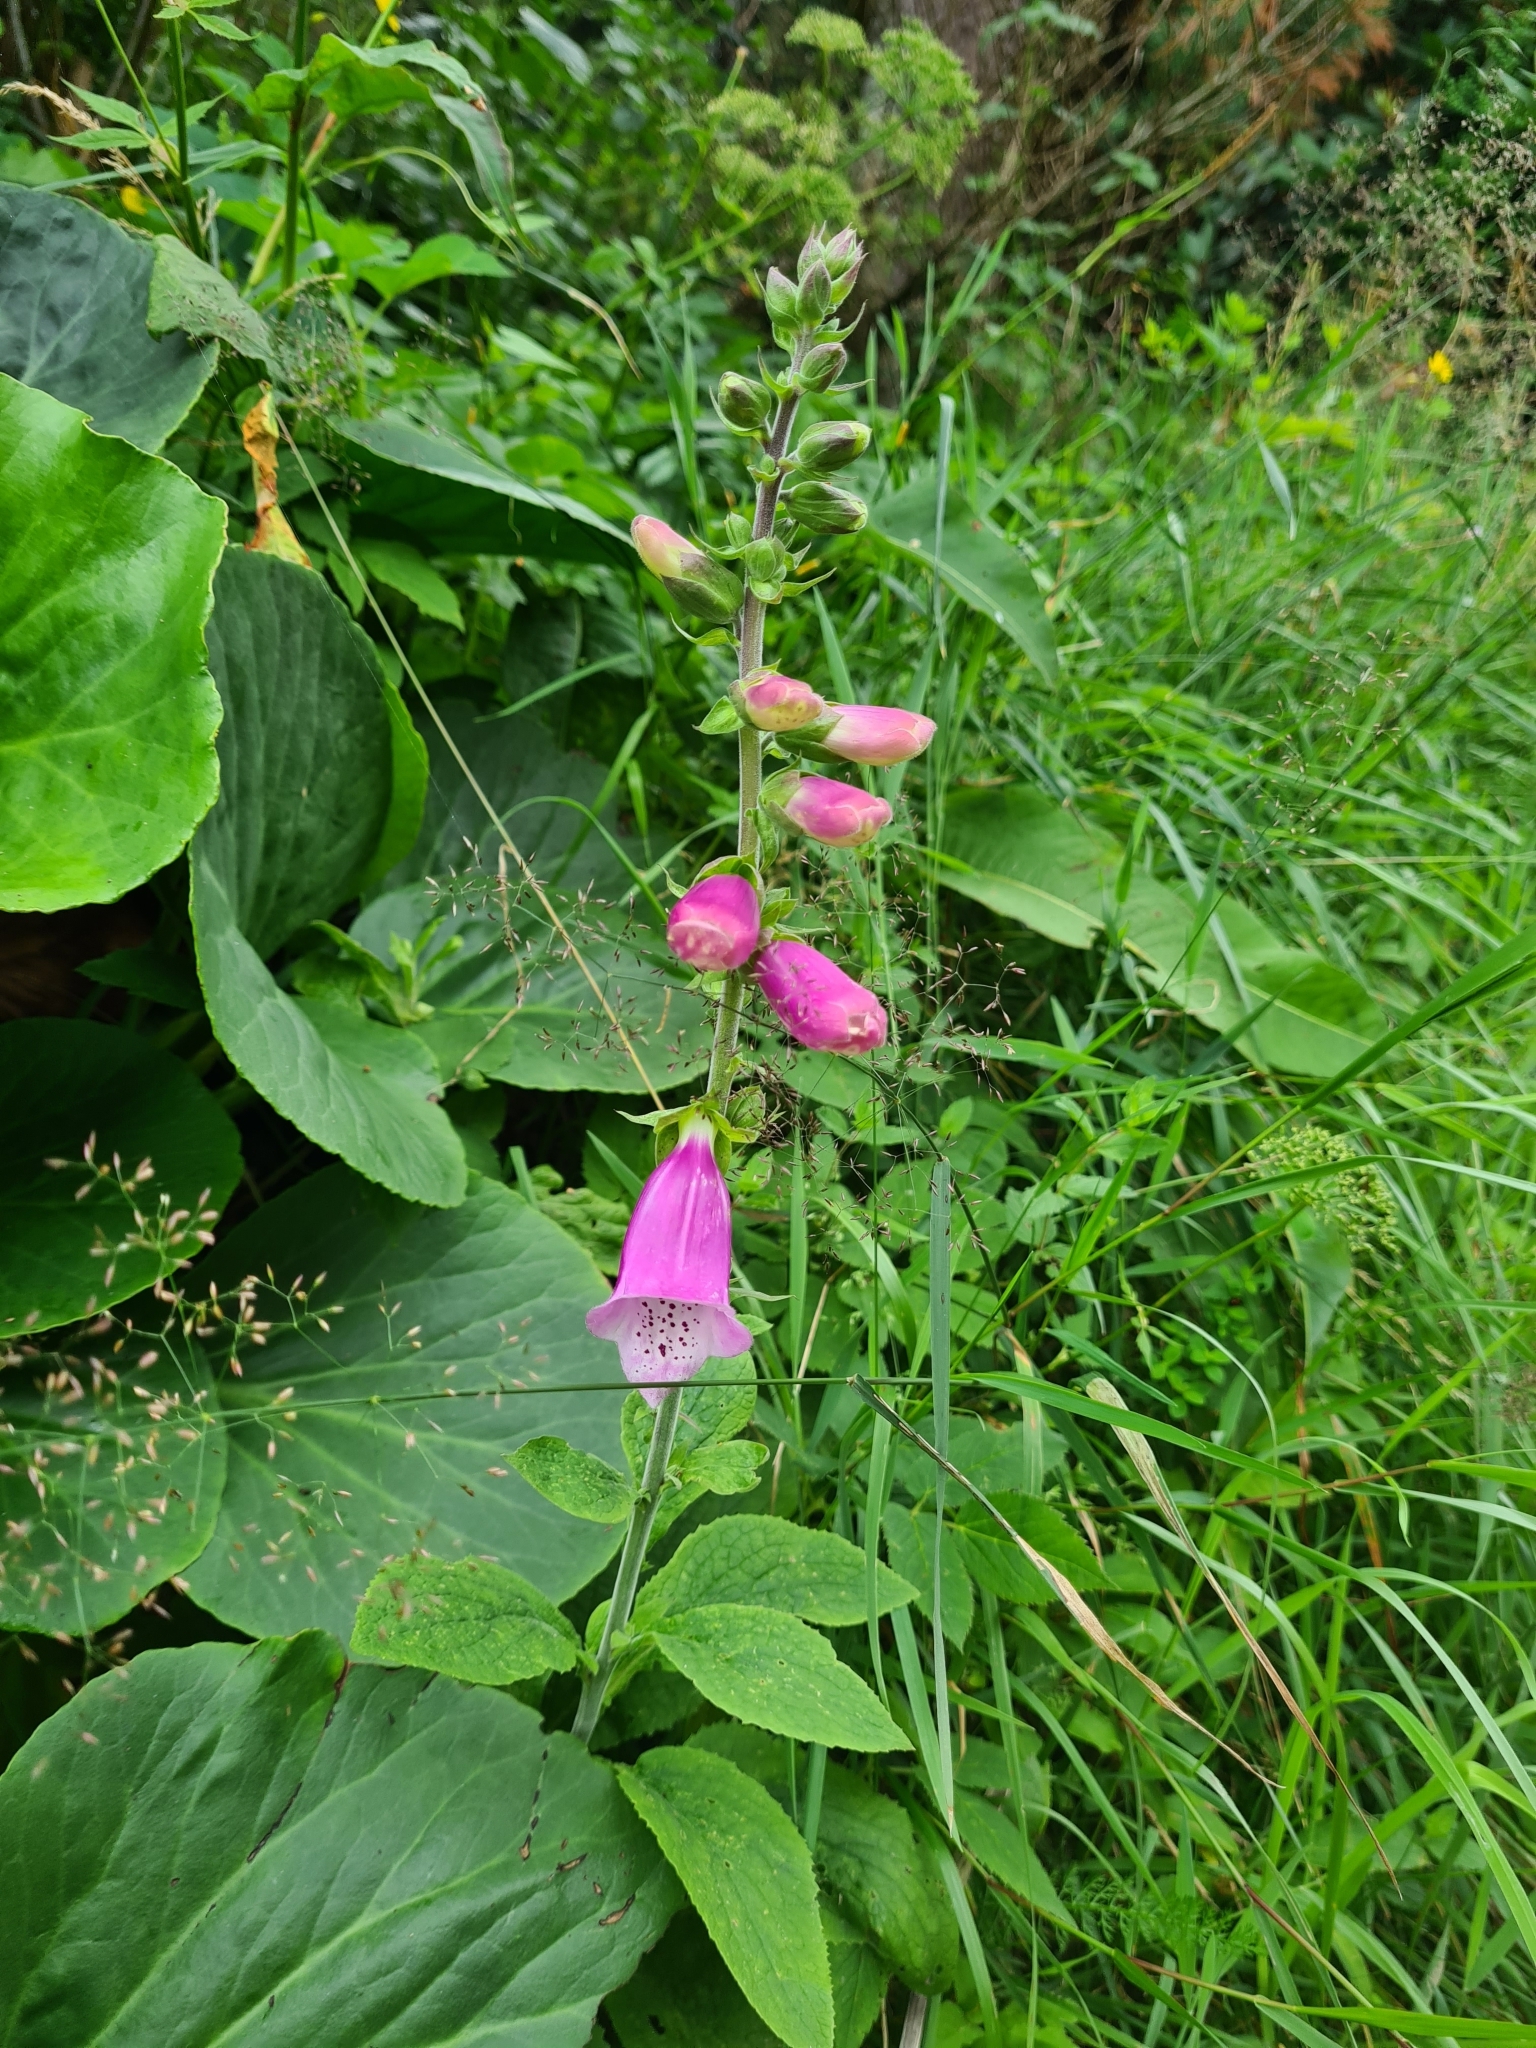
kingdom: Plantae
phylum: Tracheophyta
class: Magnoliopsida
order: Lamiales
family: Plantaginaceae
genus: Digitalis
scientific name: Digitalis purpurea
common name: Foxglove
